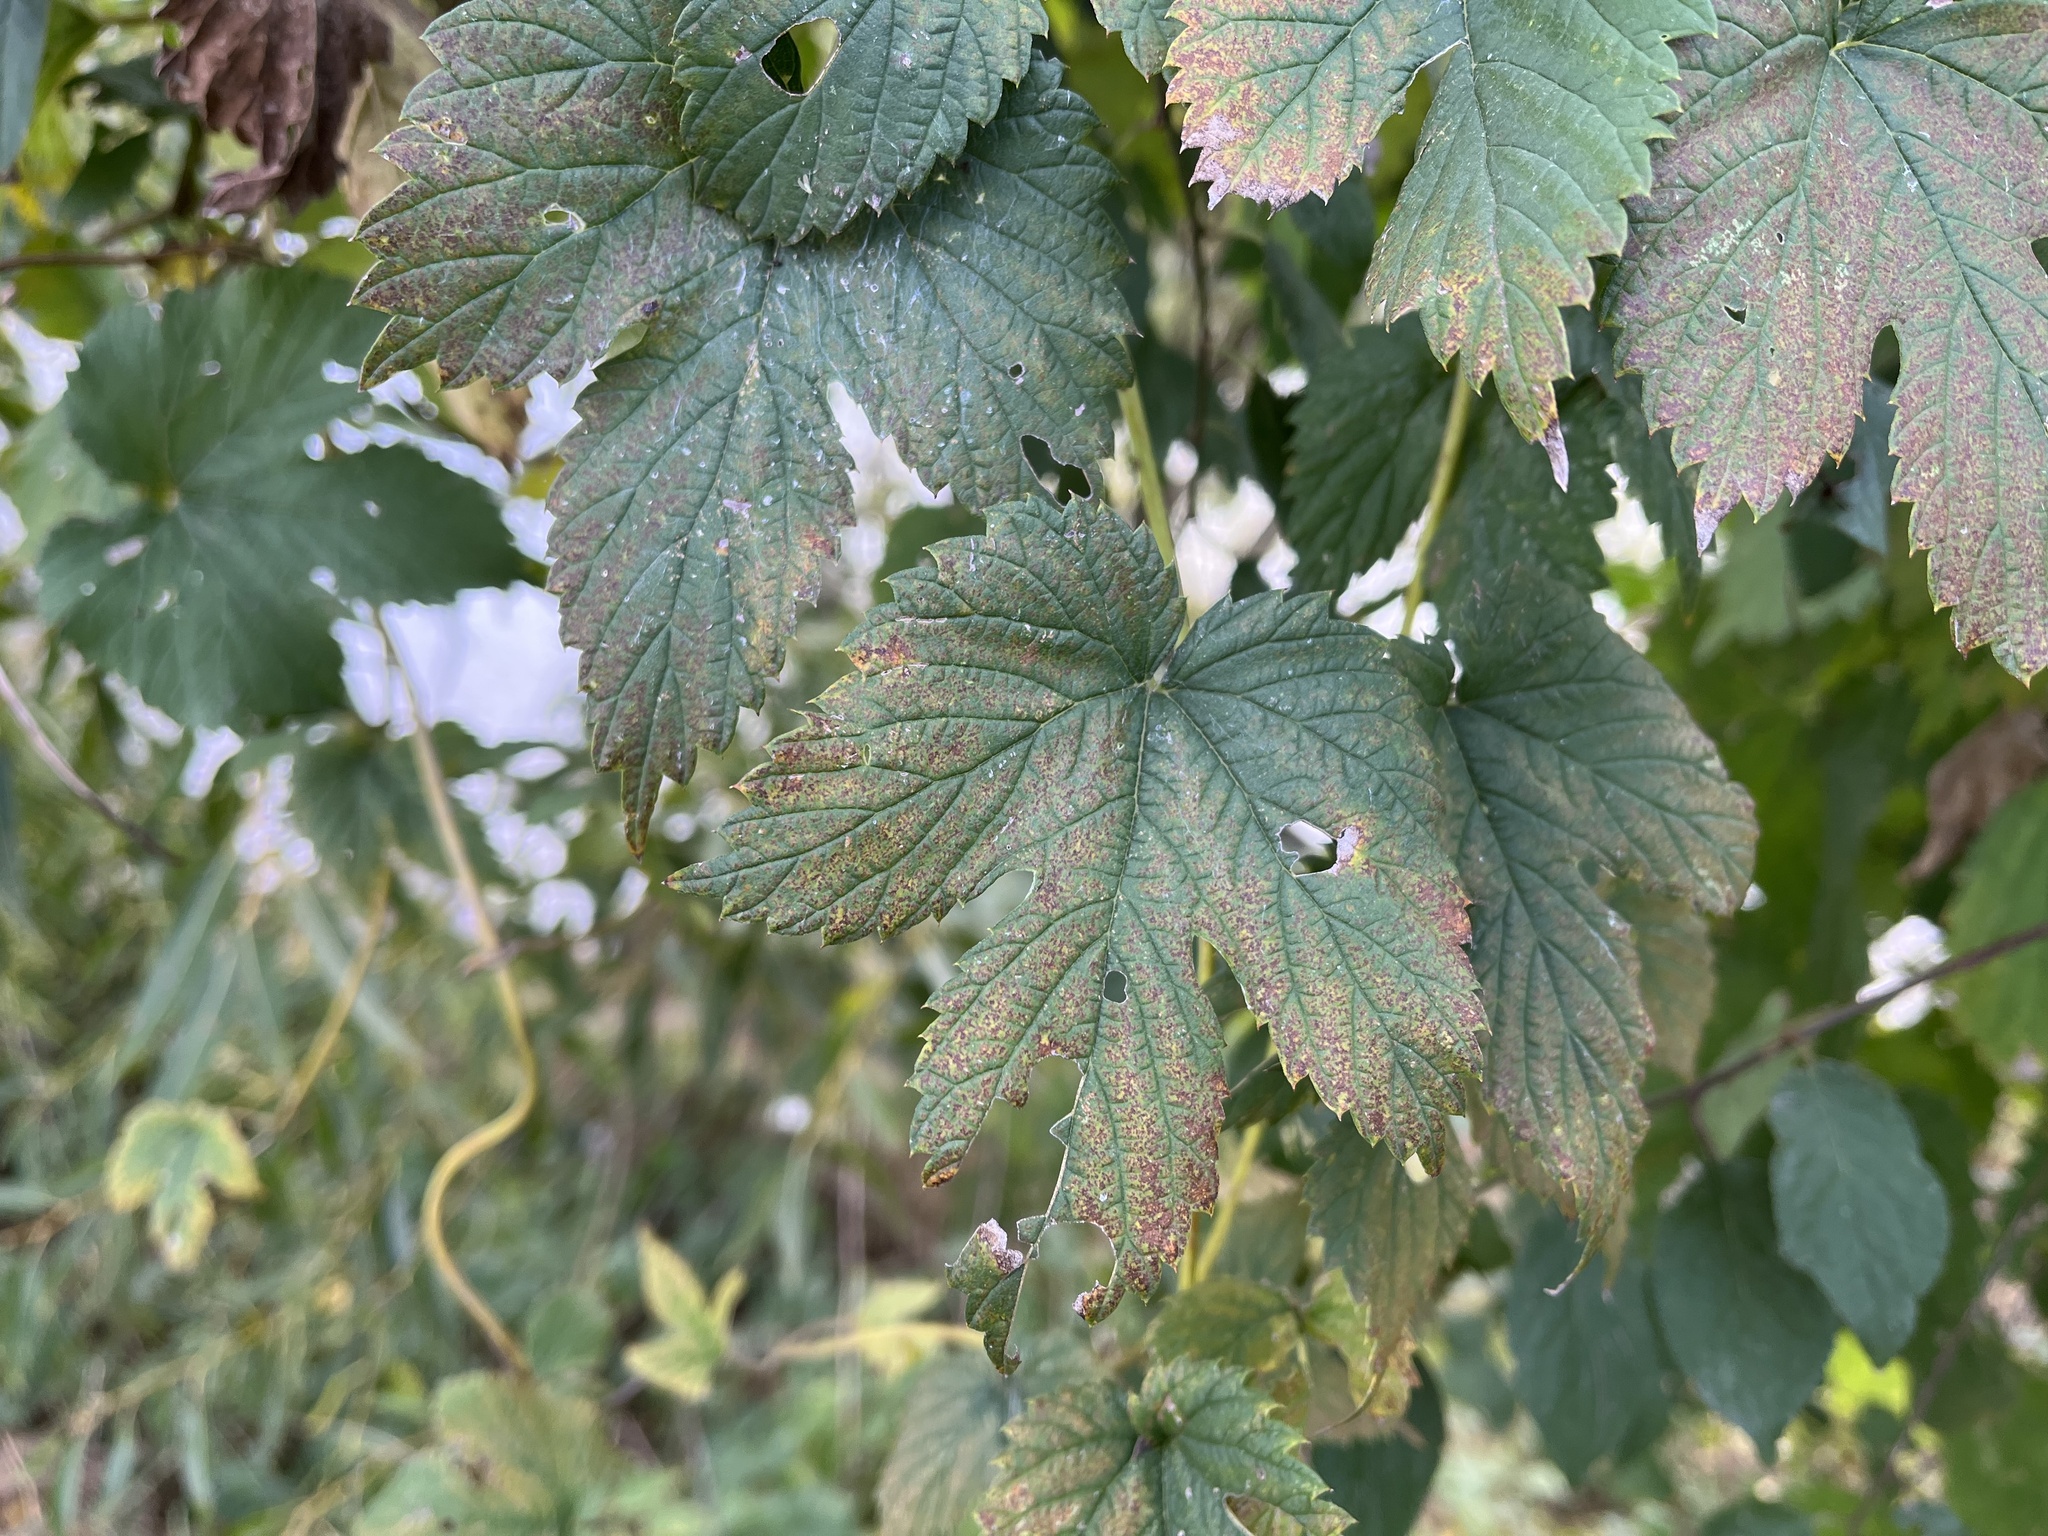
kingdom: Plantae
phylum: Tracheophyta
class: Magnoliopsida
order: Rosales
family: Cannabaceae
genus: Humulus
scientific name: Humulus lupulus
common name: Hop
